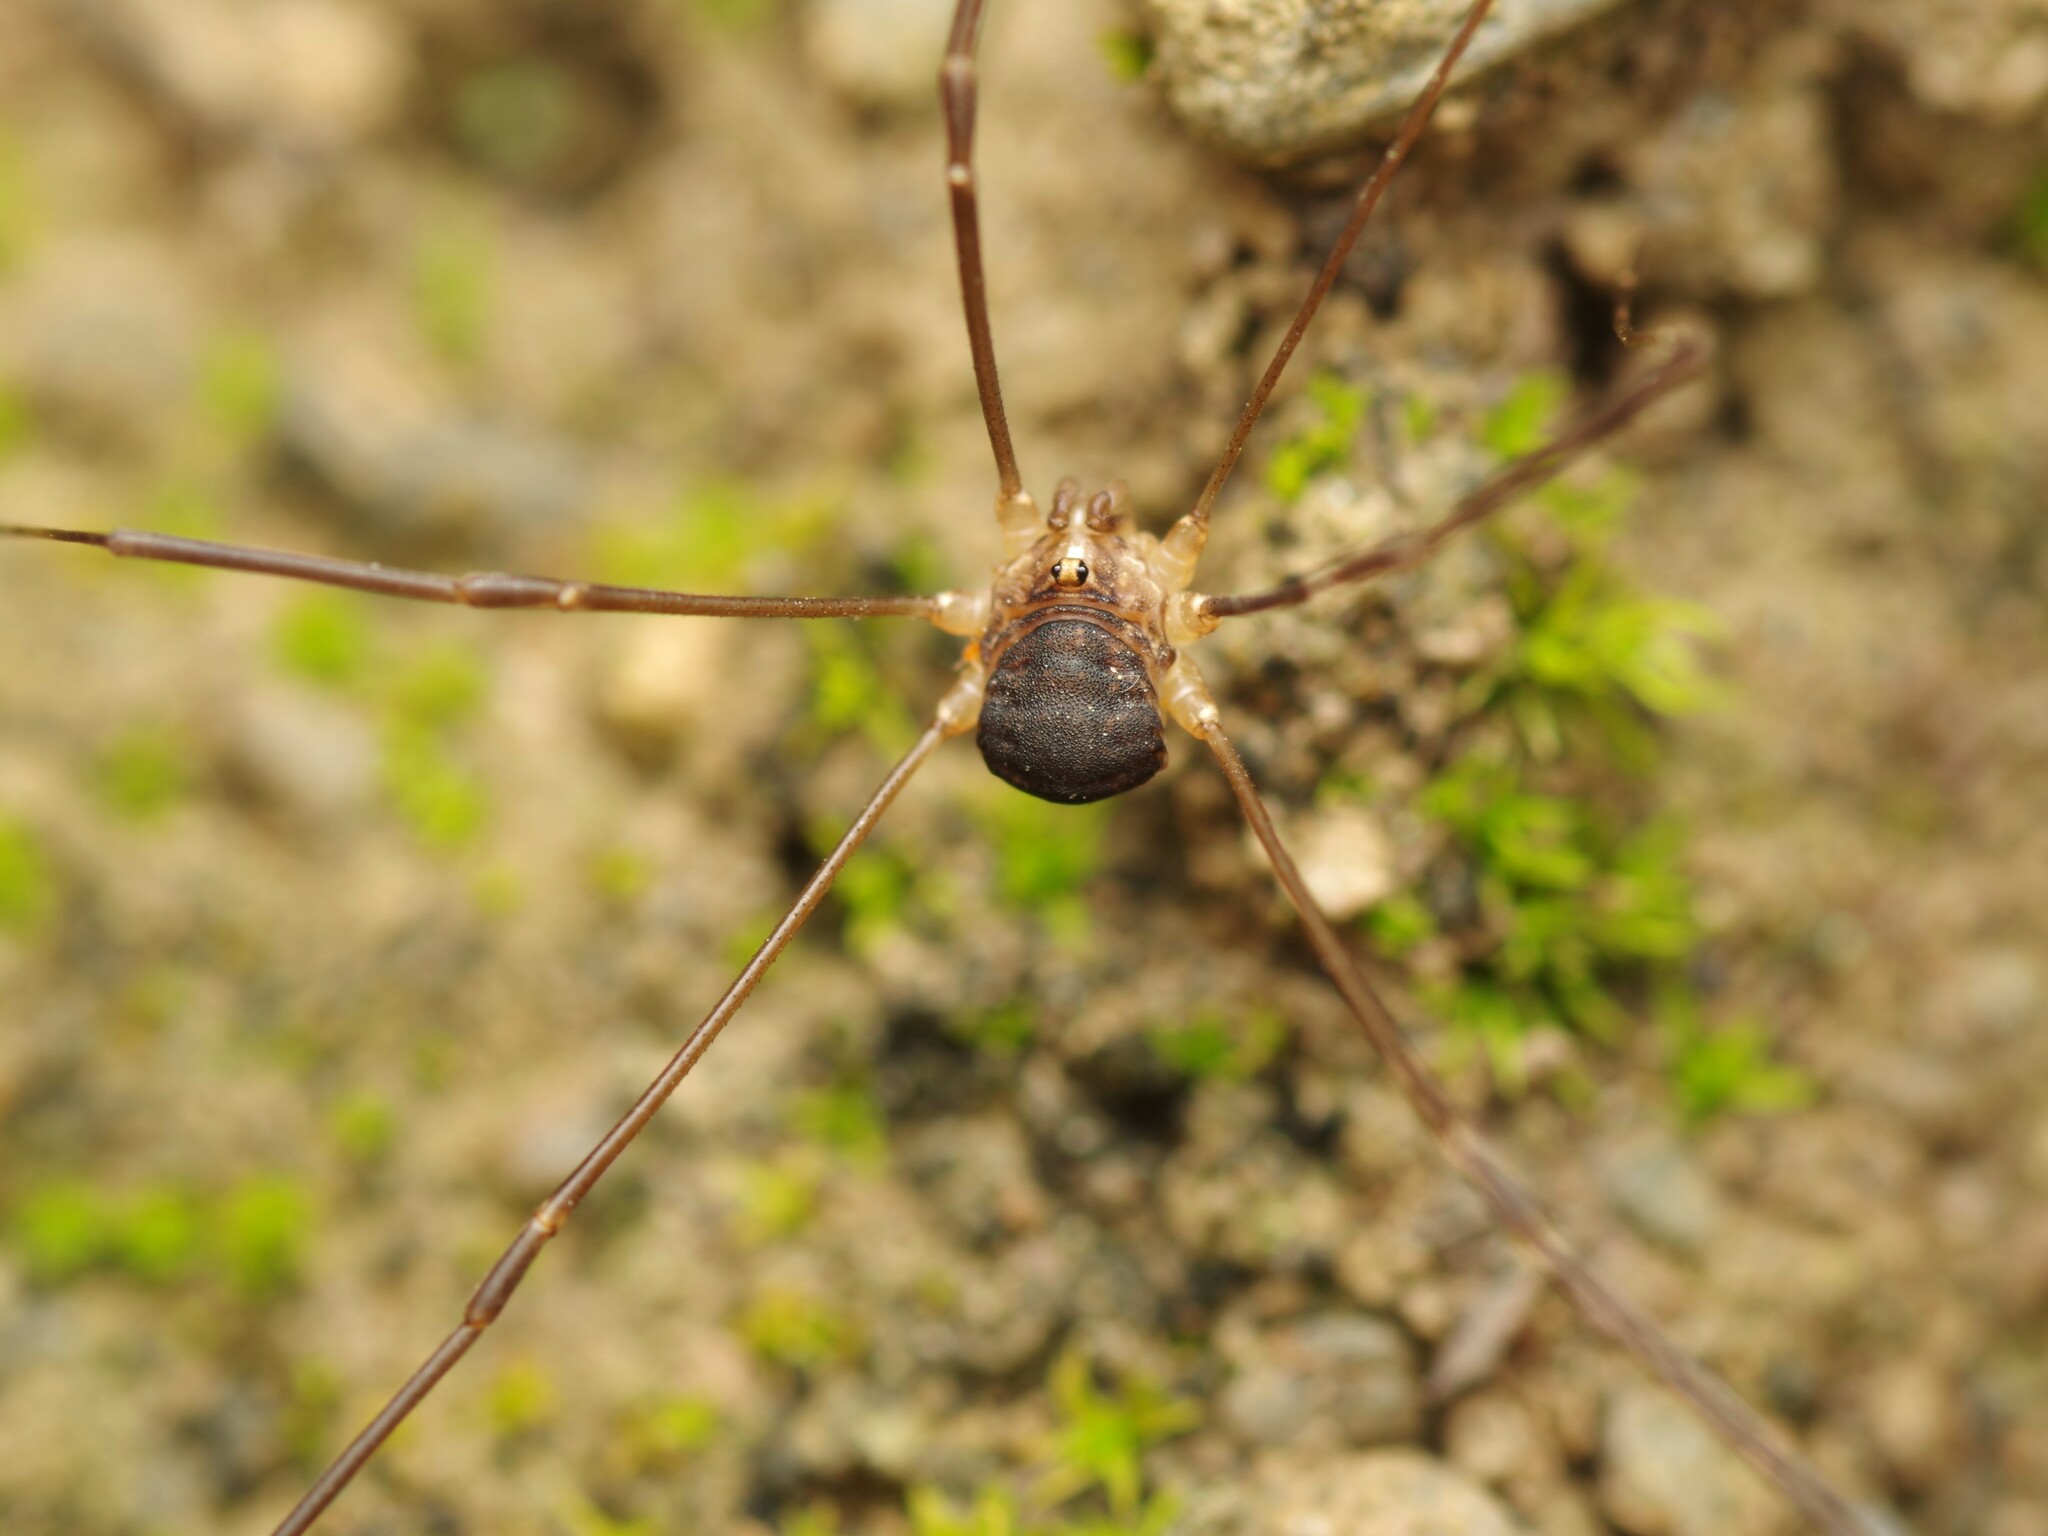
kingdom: Animalia
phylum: Arthropoda
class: Arachnida
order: Opiliones
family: Sclerosomatidae
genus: Nelima
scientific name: Nelima gothica
